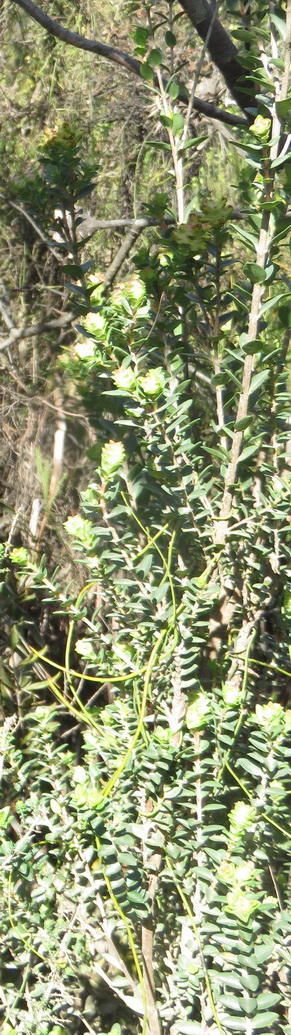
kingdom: Plantae
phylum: Tracheophyta
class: Magnoliopsida
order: Myrtales
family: Penaeaceae
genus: Penaea
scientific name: Penaea cneorum
